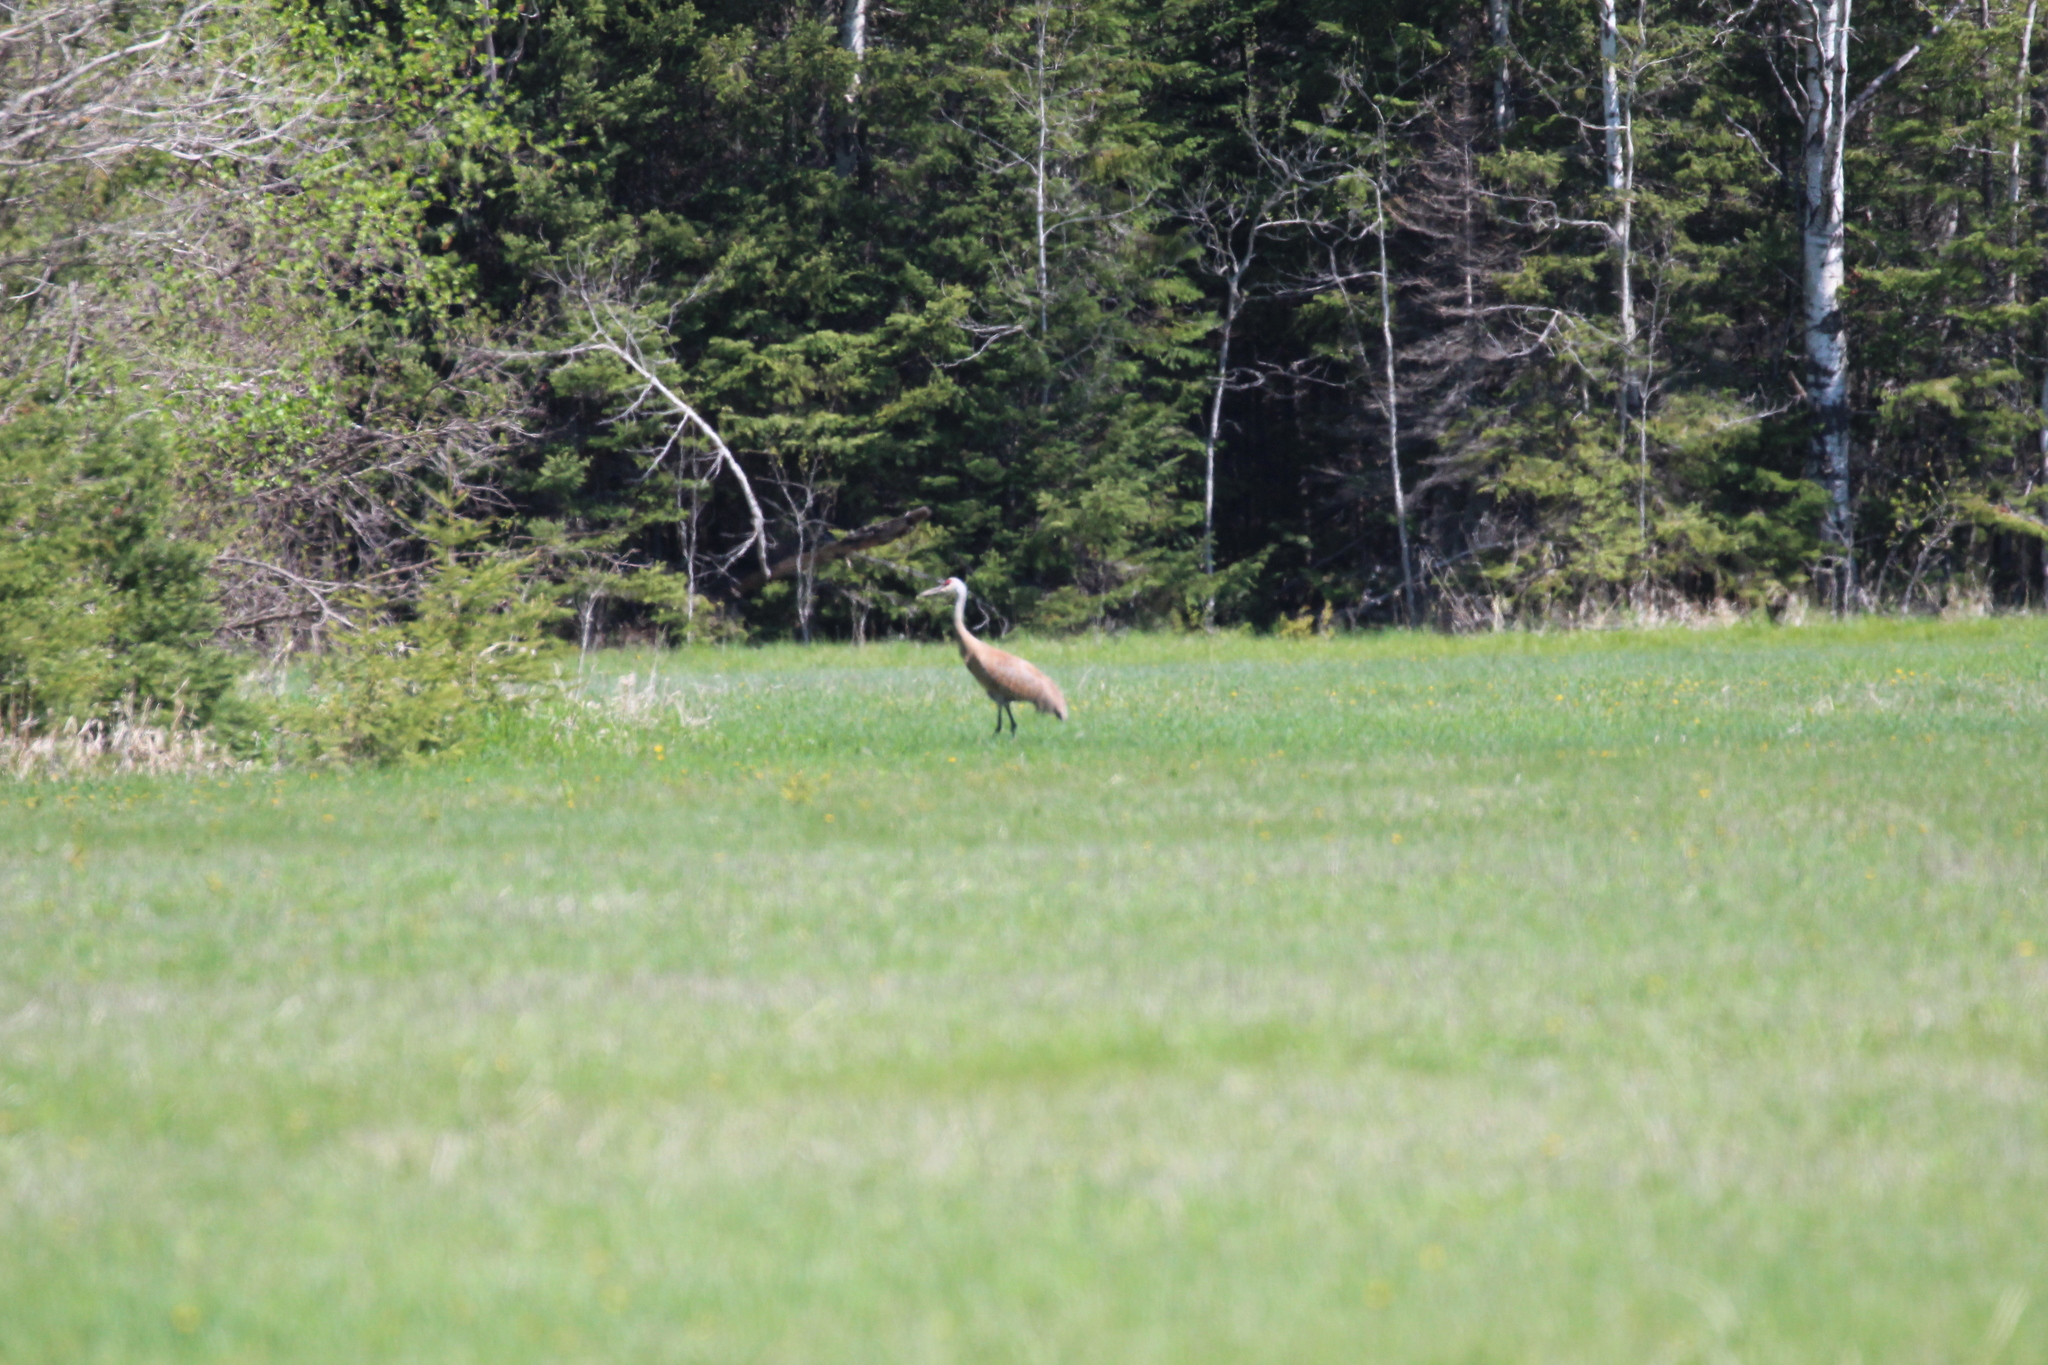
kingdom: Animalia
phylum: Chordata
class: Aves
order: Gruiformes
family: Gruidae
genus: Grus
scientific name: Grus canadensis
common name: Sandhill crane
